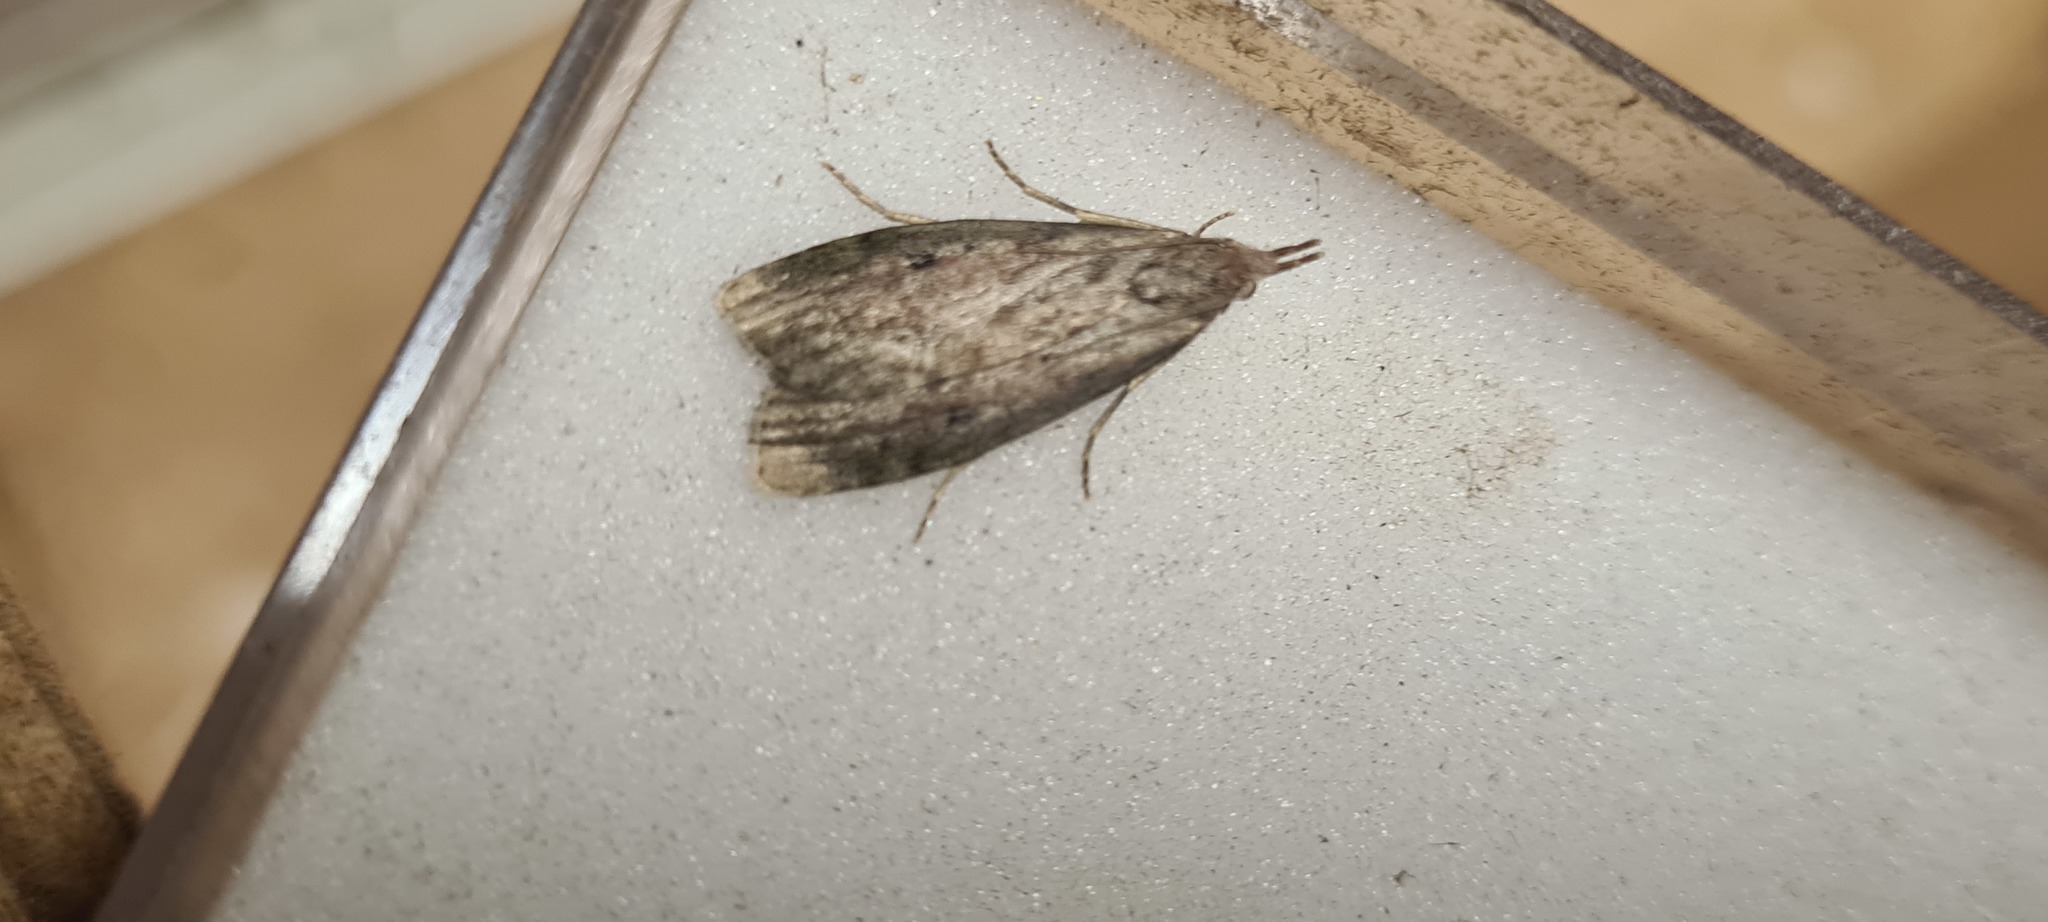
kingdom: Animalia
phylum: Arthropoda
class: Insecta
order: Lepidoptera
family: Pyralidae
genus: Aphomia
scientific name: Aphomia sociella
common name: Bee moth
